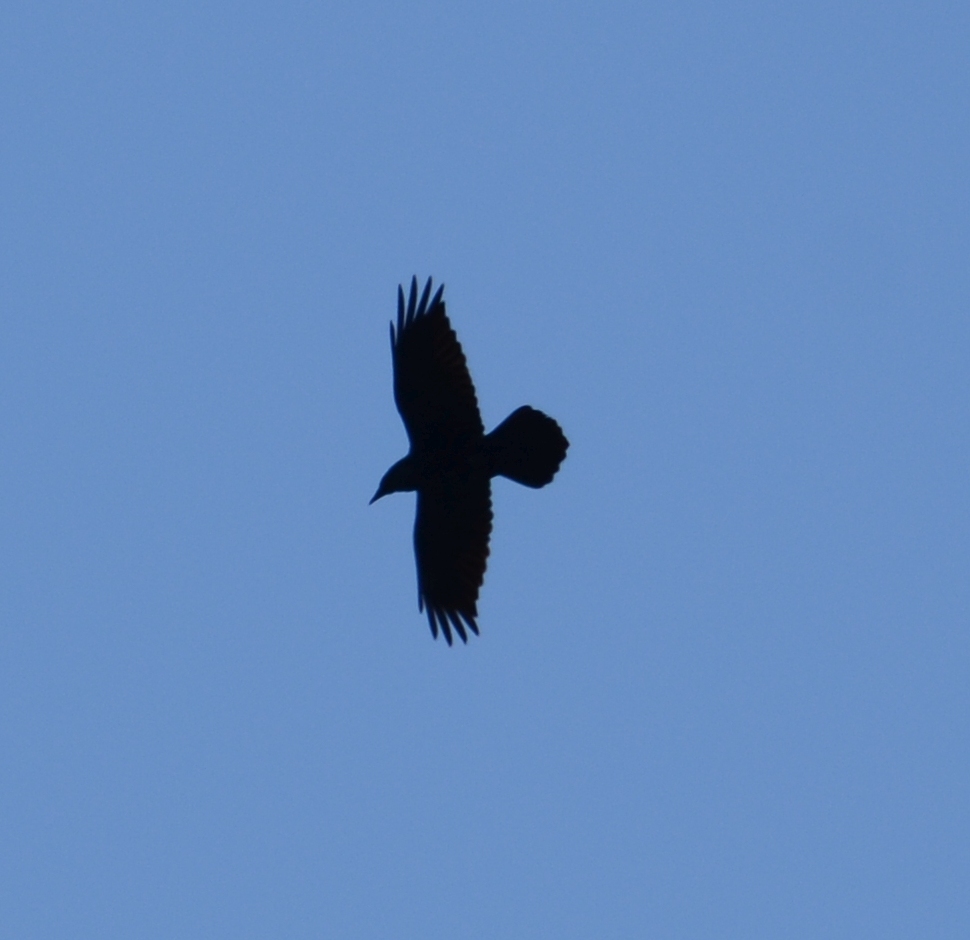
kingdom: Animalia
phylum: Chordata
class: Aves
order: Passeriformes
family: Corvidae
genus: Corvus
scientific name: Corvus corax
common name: Common raven
